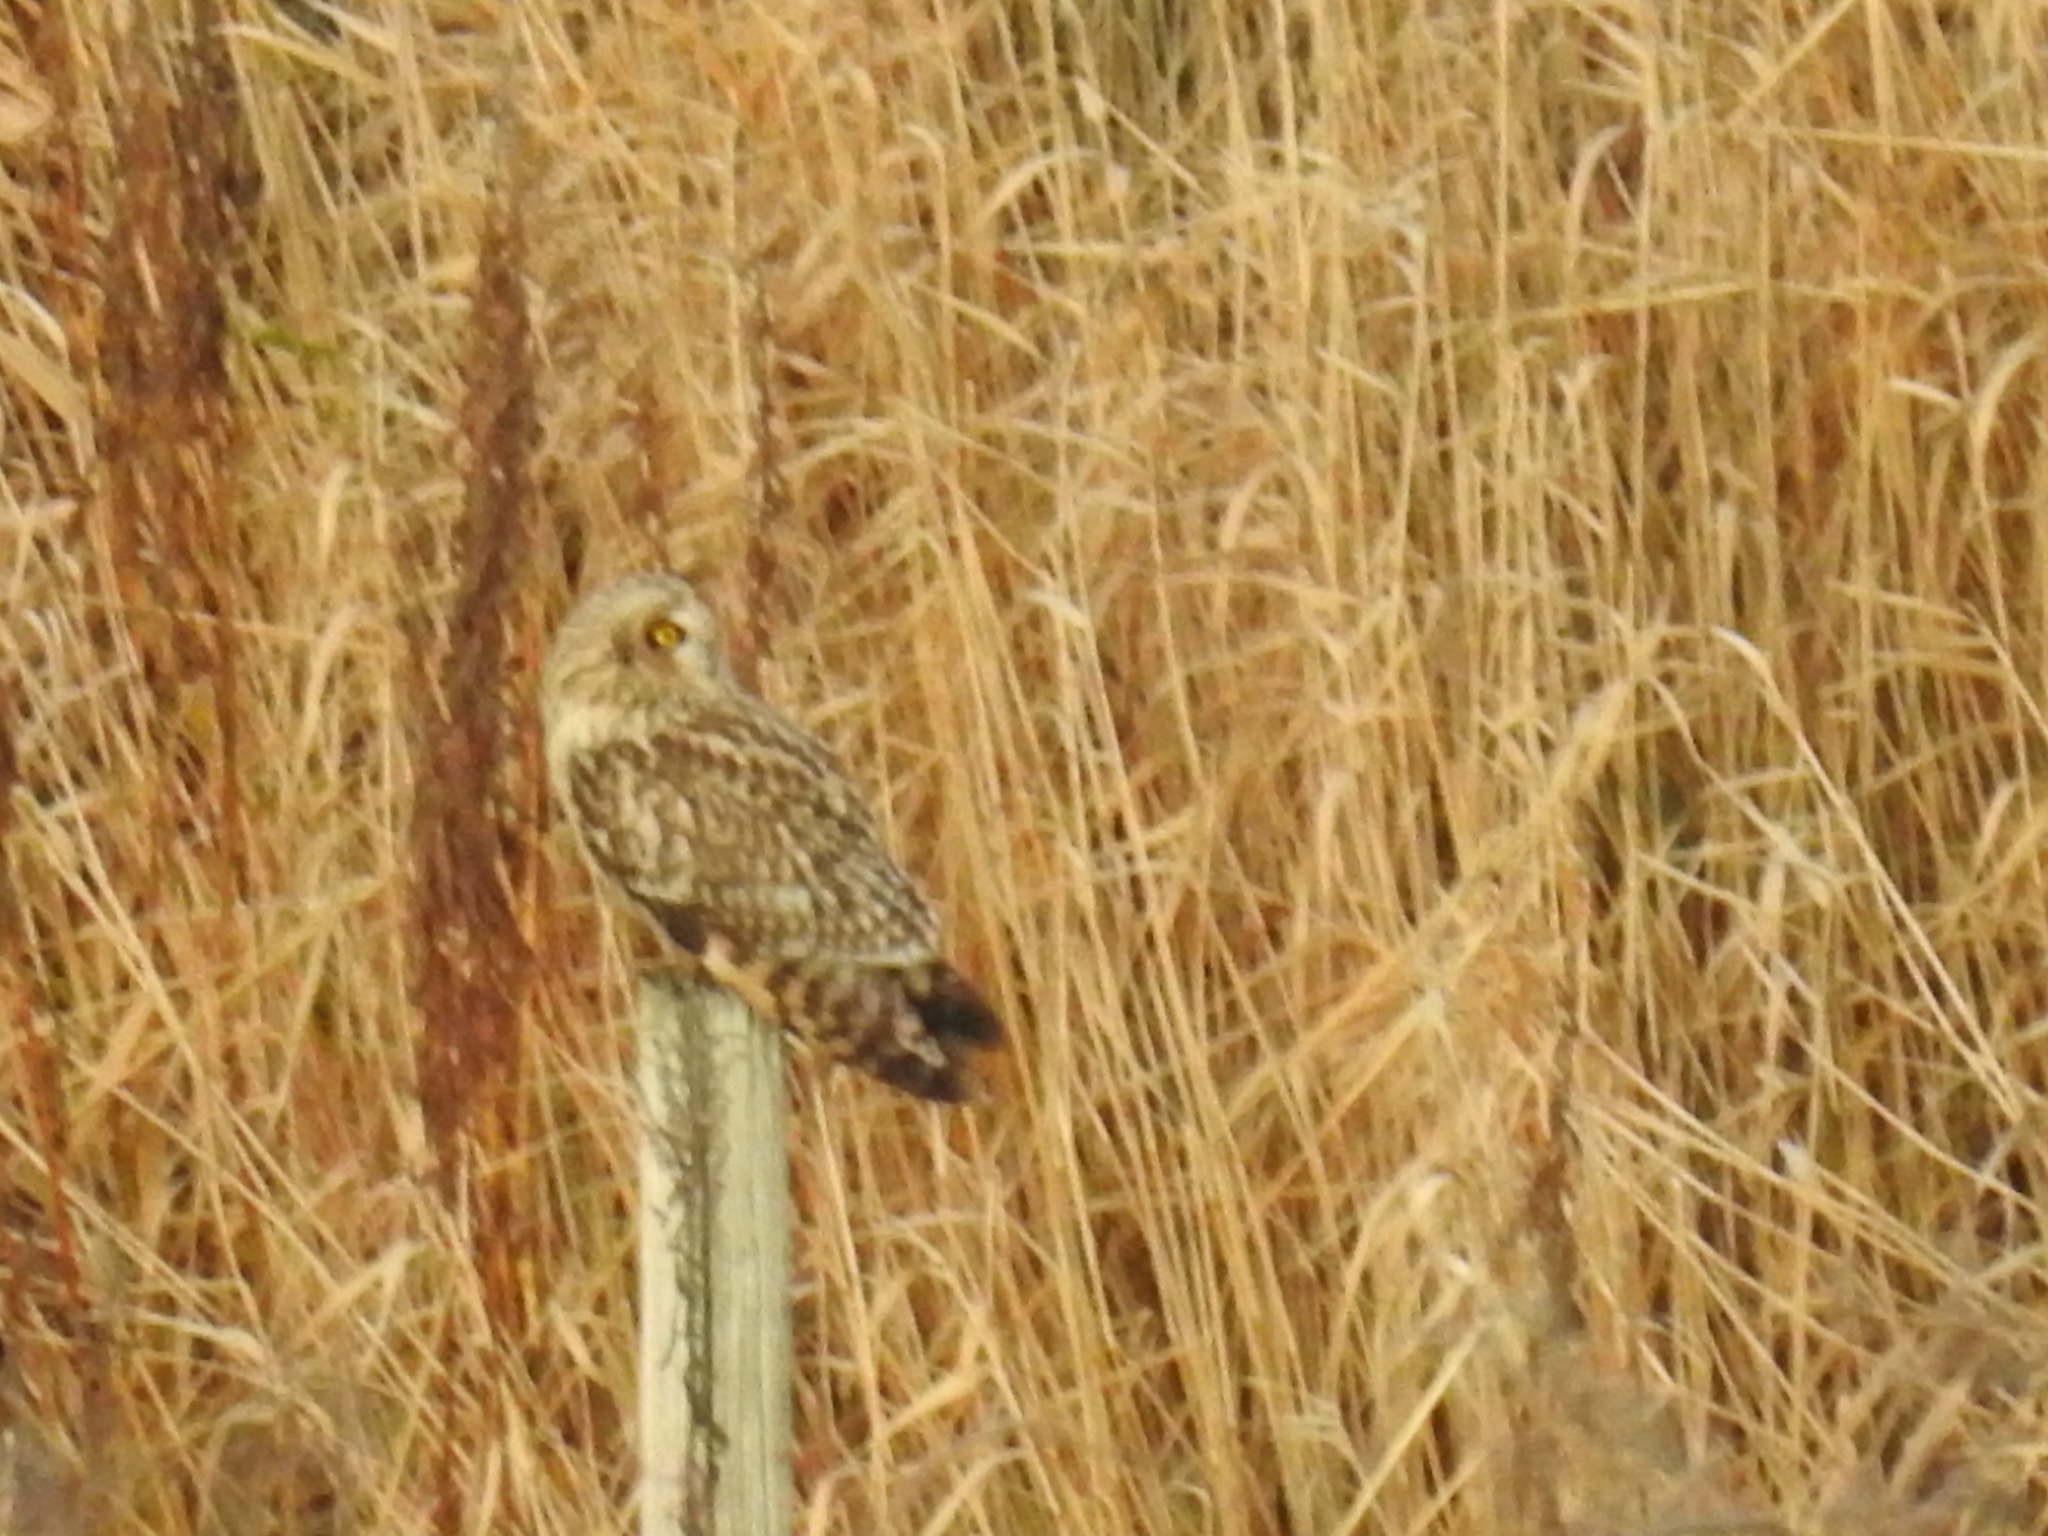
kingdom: Animalia
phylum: Chordata
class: Aves
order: Strigiformes
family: Strigidae
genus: Asio
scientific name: Asio flammeus
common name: Short-eared owl
